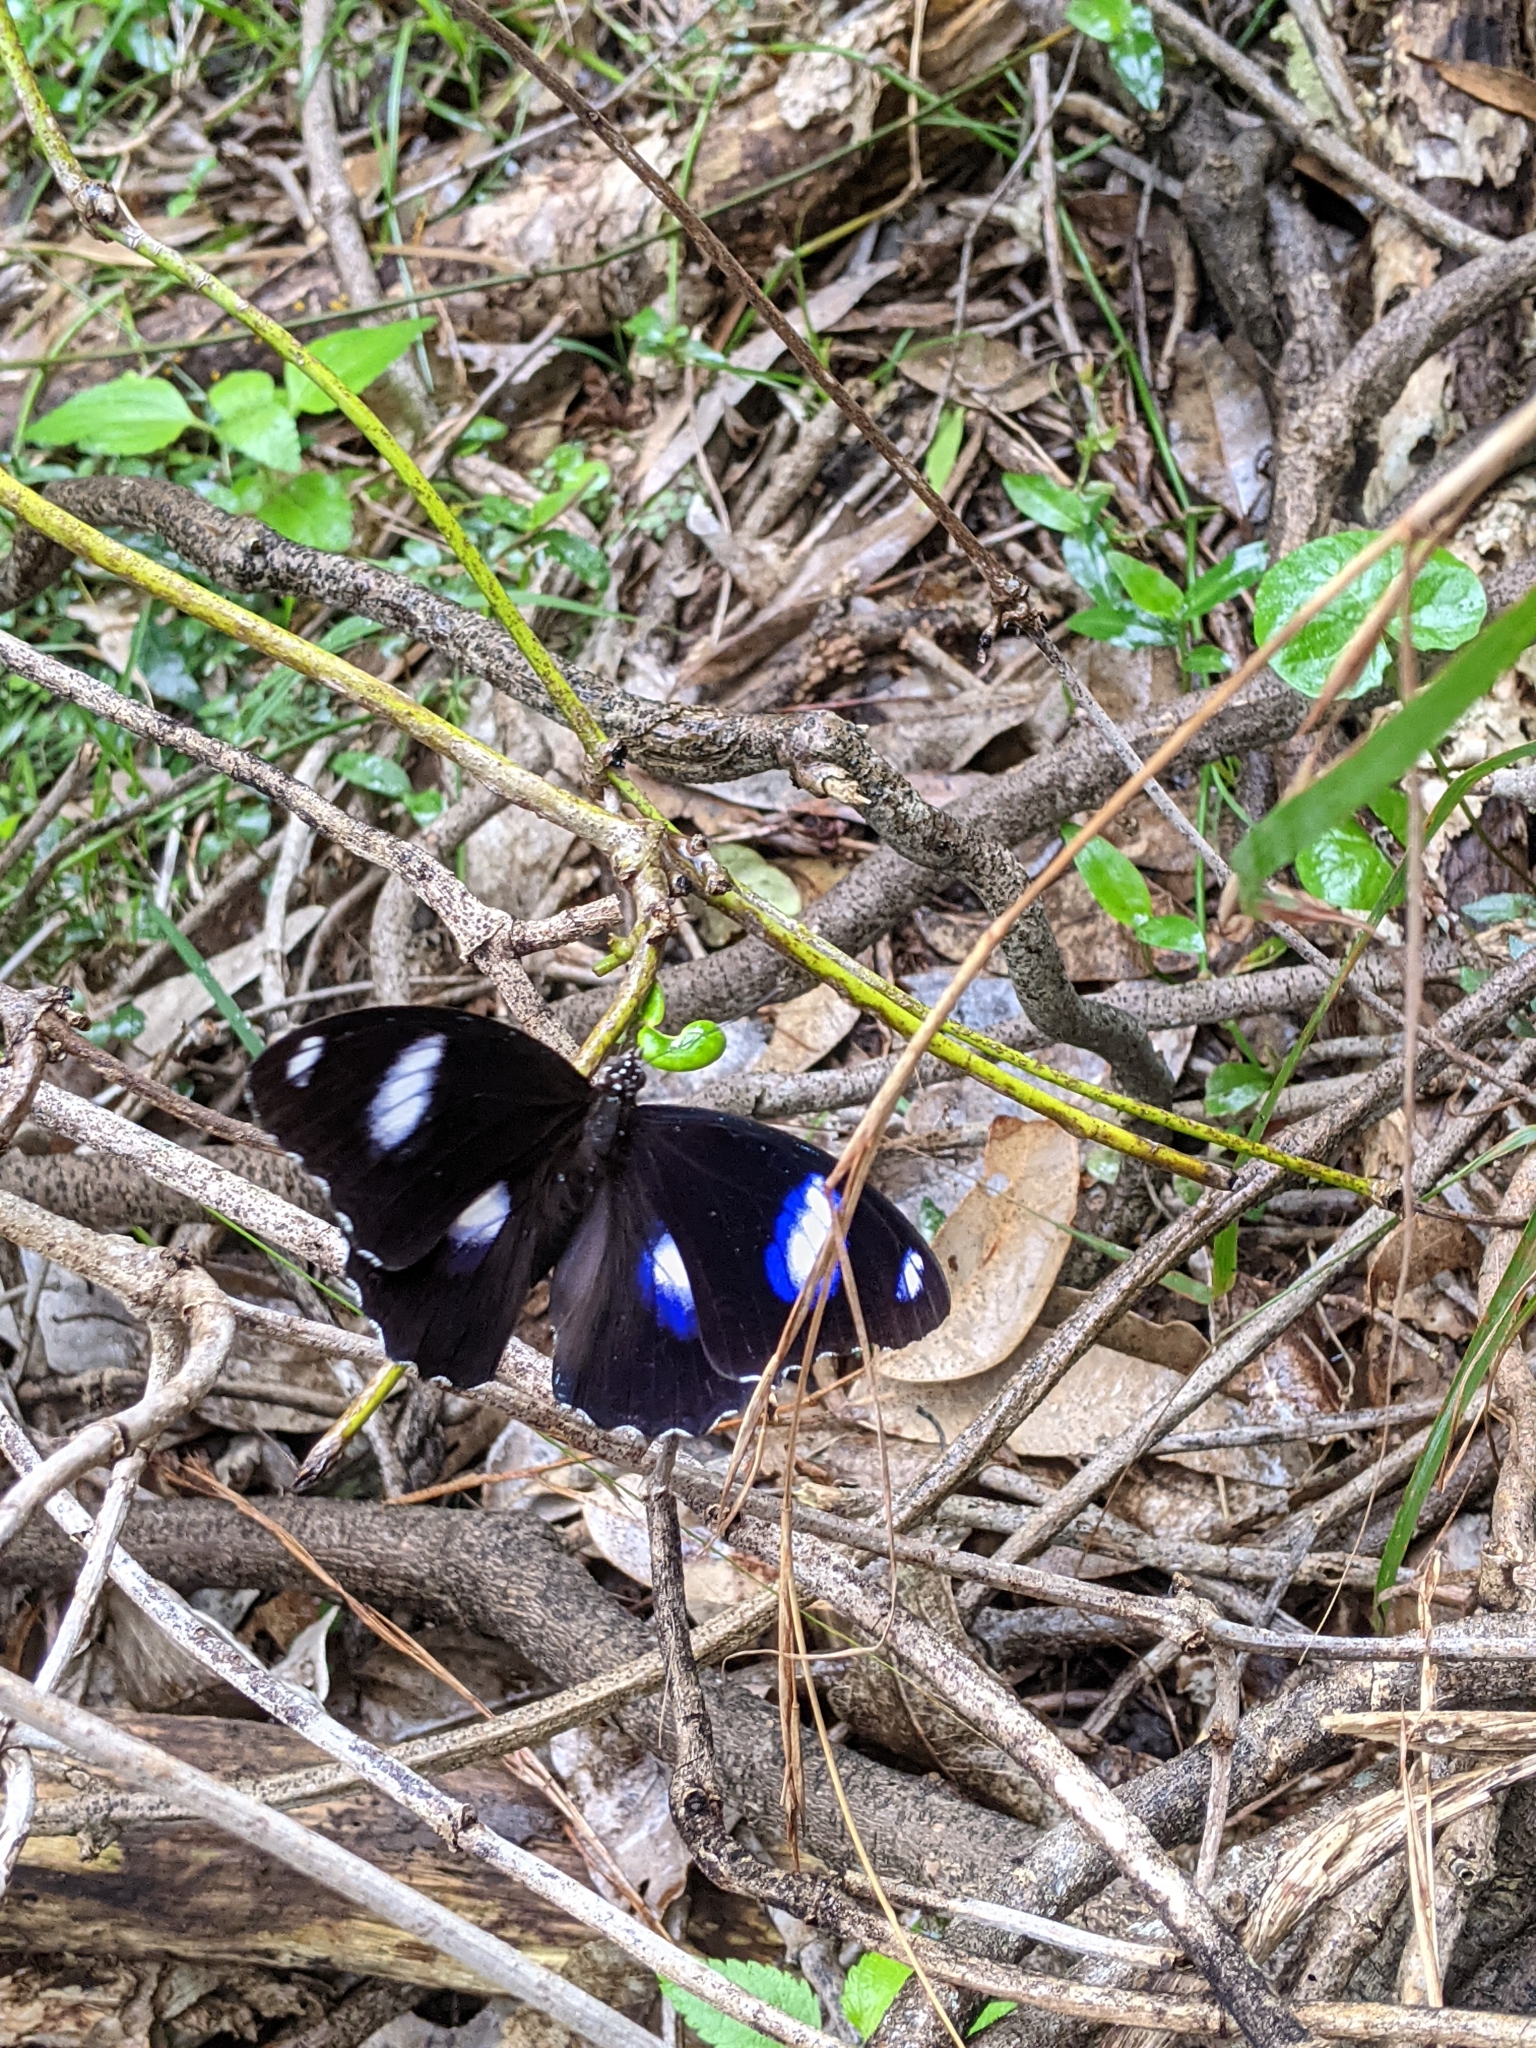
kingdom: Animalia
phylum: Arthropoda
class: Insecta
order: Lepidoptera
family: Nymphalidae
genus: Hypolimnas
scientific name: Hypolimnas bolina
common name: Great eggfly
